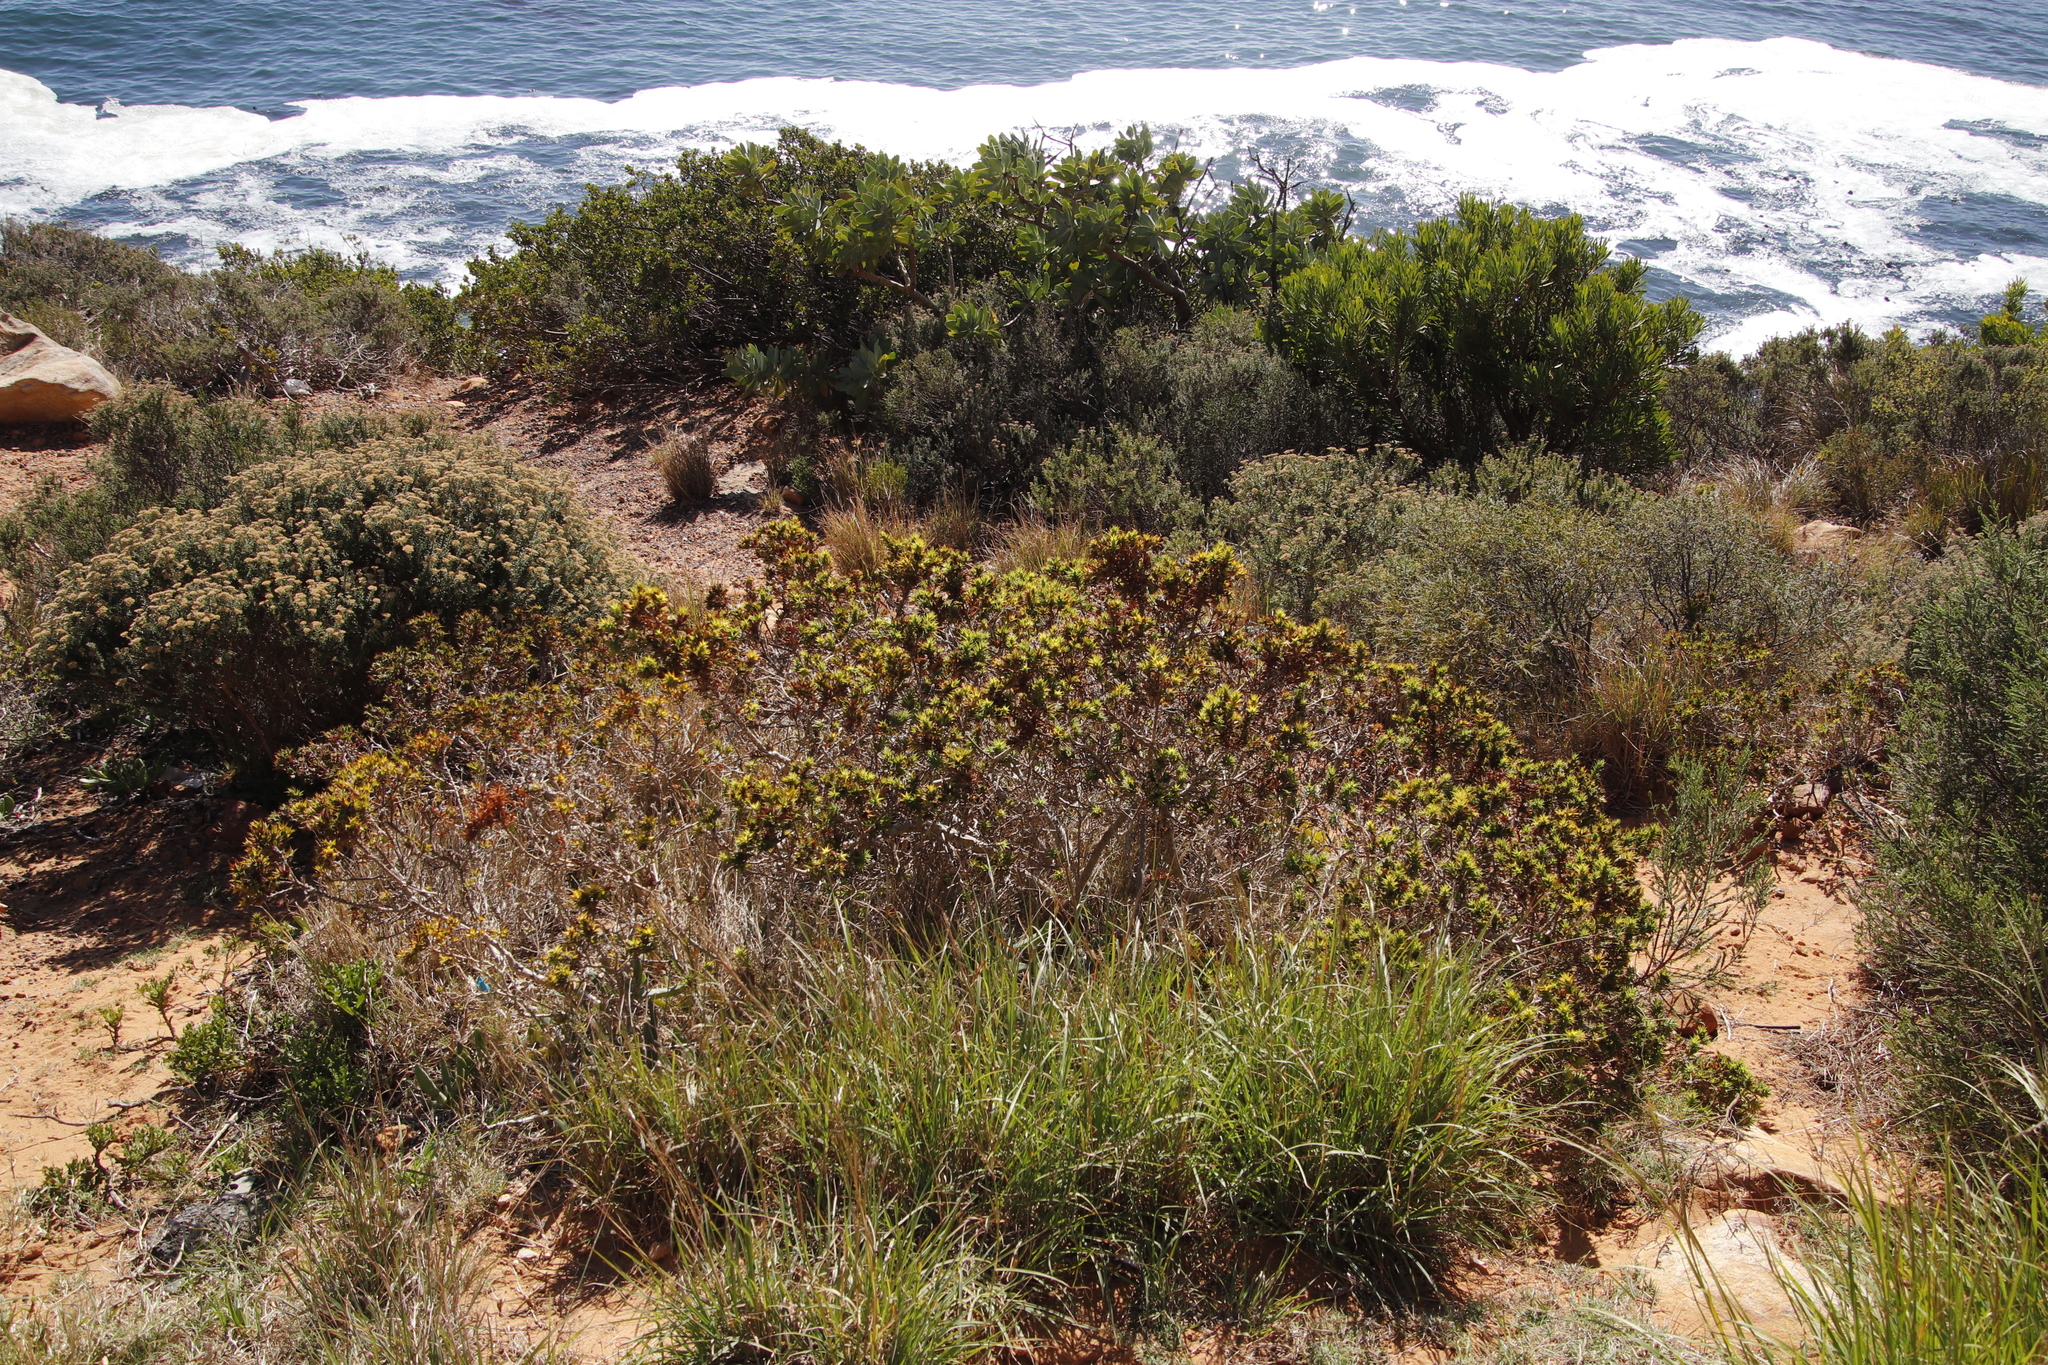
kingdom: Plantae
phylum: Tracheophyta
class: Magnoliopsida
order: Fabales
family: Fabaceae
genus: Aspalathus
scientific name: Aspalathus cordata
